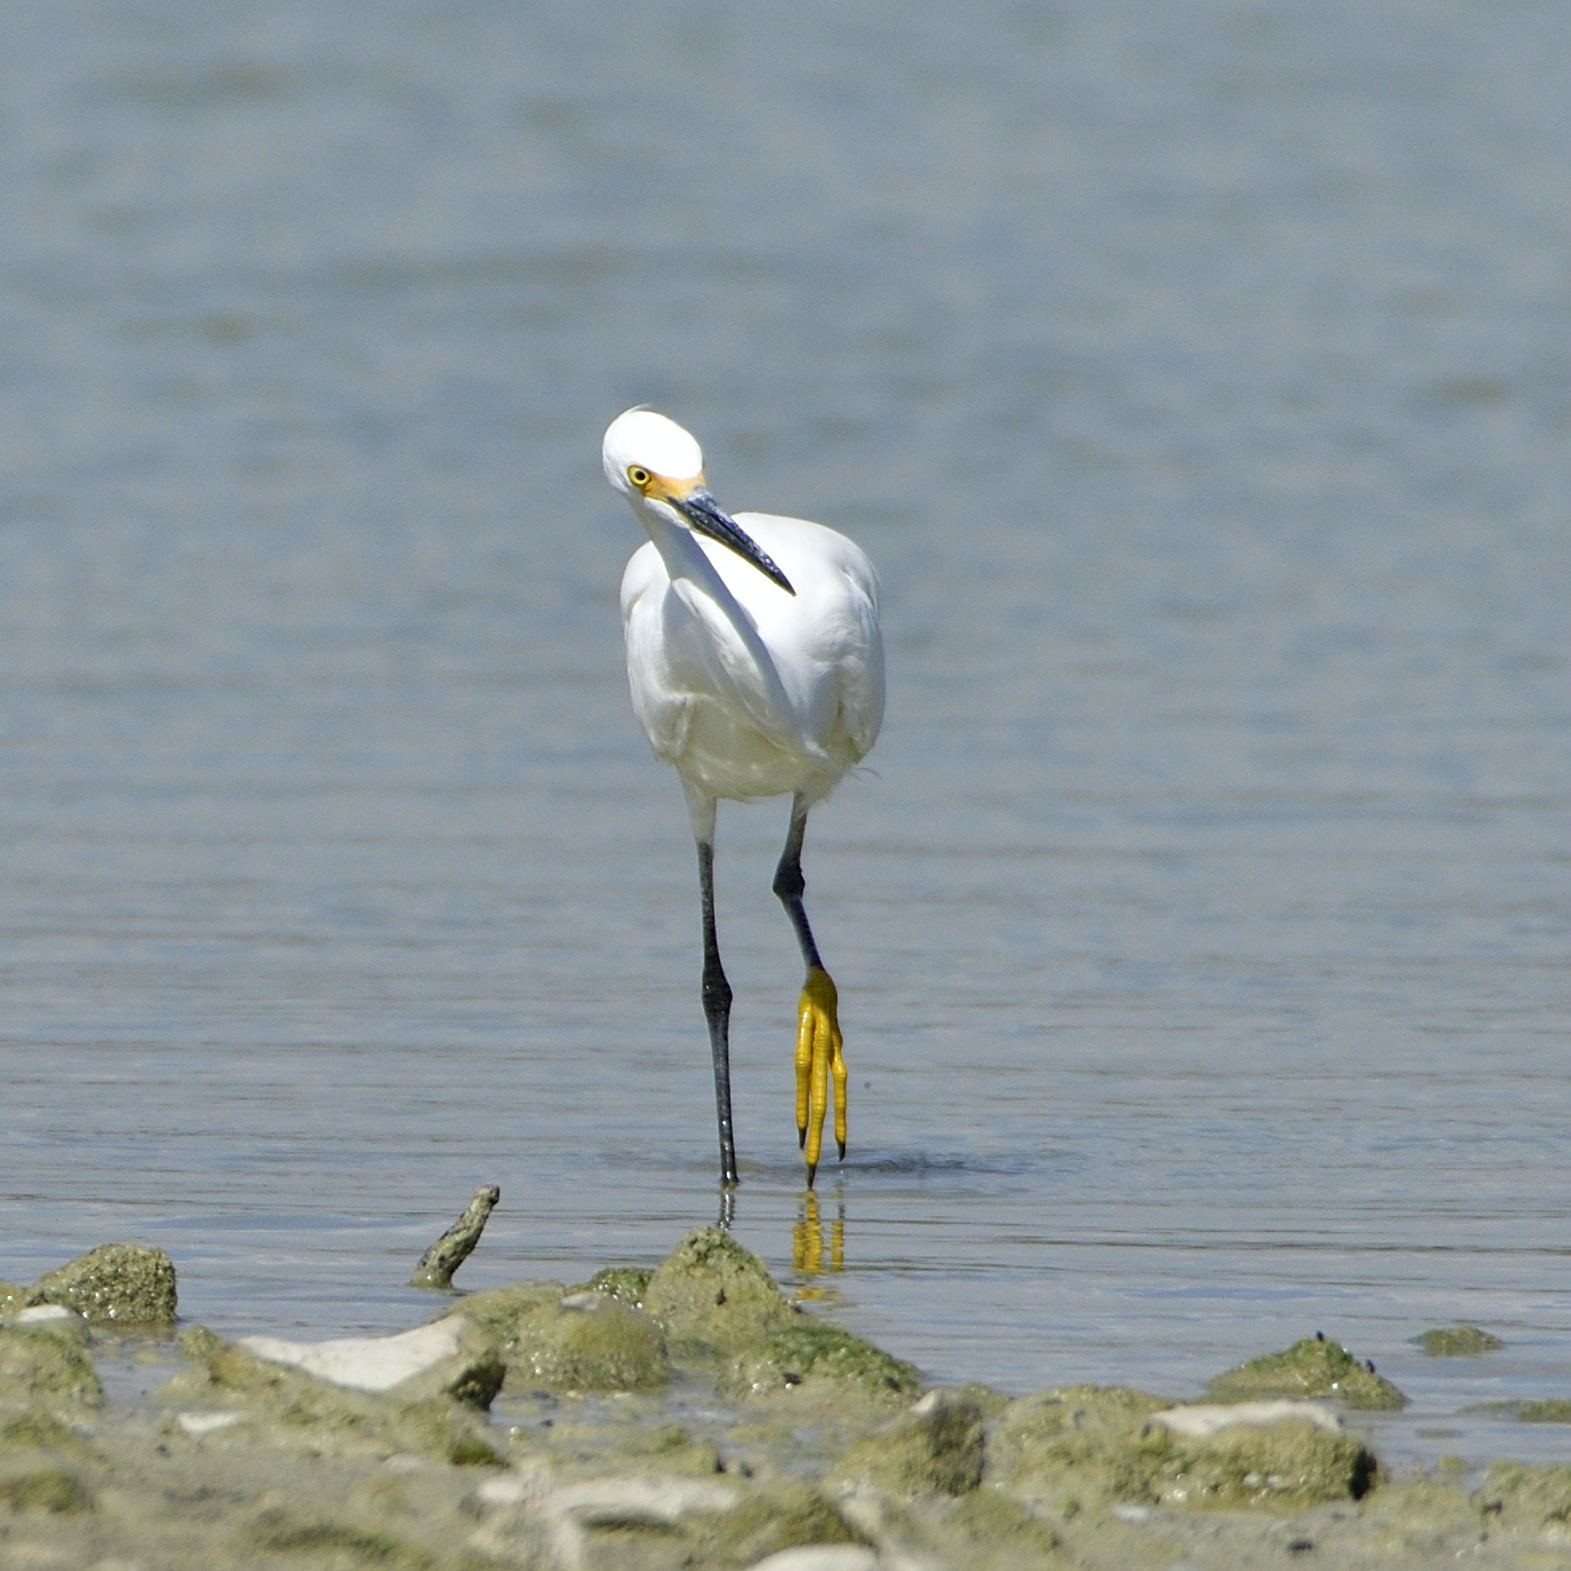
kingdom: Animalia
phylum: Chordata
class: Aves
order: Pelecaniformes
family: Ardeidae
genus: Egretta
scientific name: Egretta thula
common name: Snowy egret
